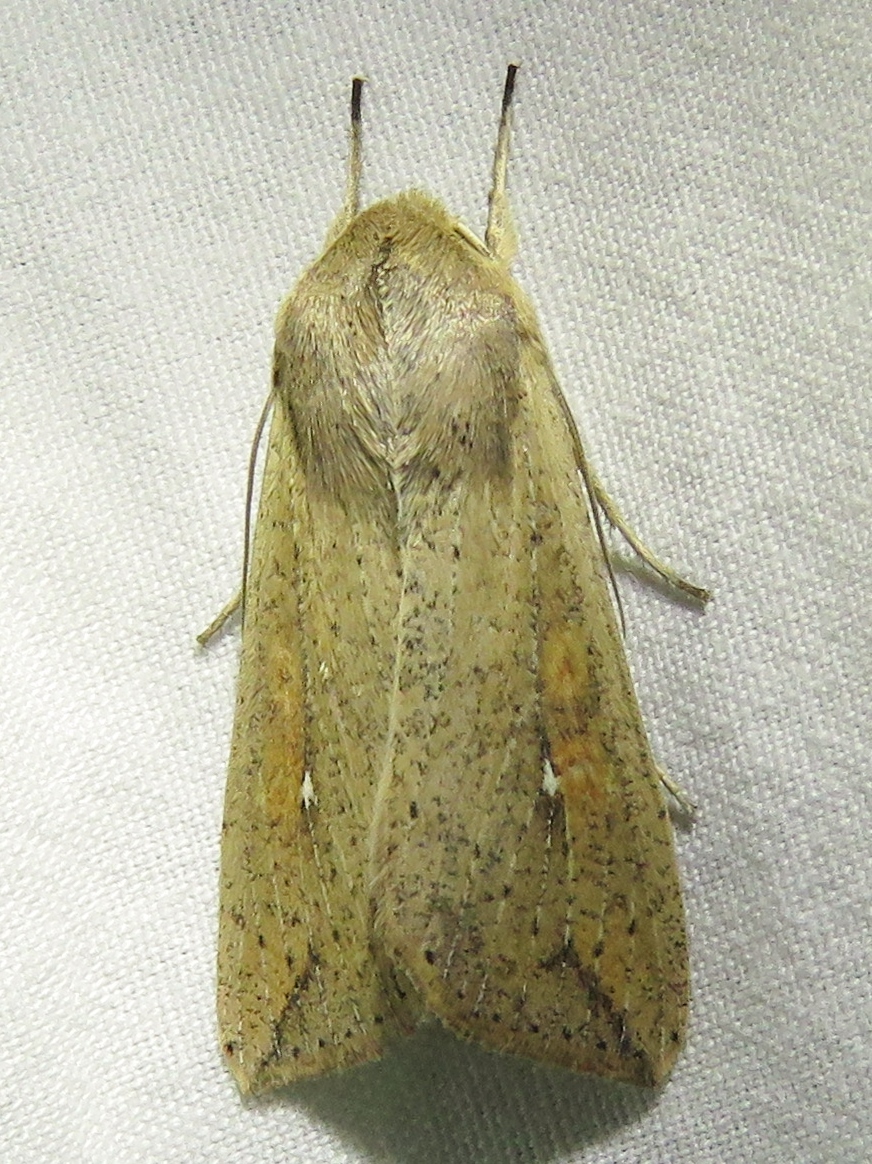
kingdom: Animalia
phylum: Arthropoda
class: Insecta
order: Lepidoptera
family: Noctuidae
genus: Mythimna
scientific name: Mythimna unipuncta
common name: White-speck
